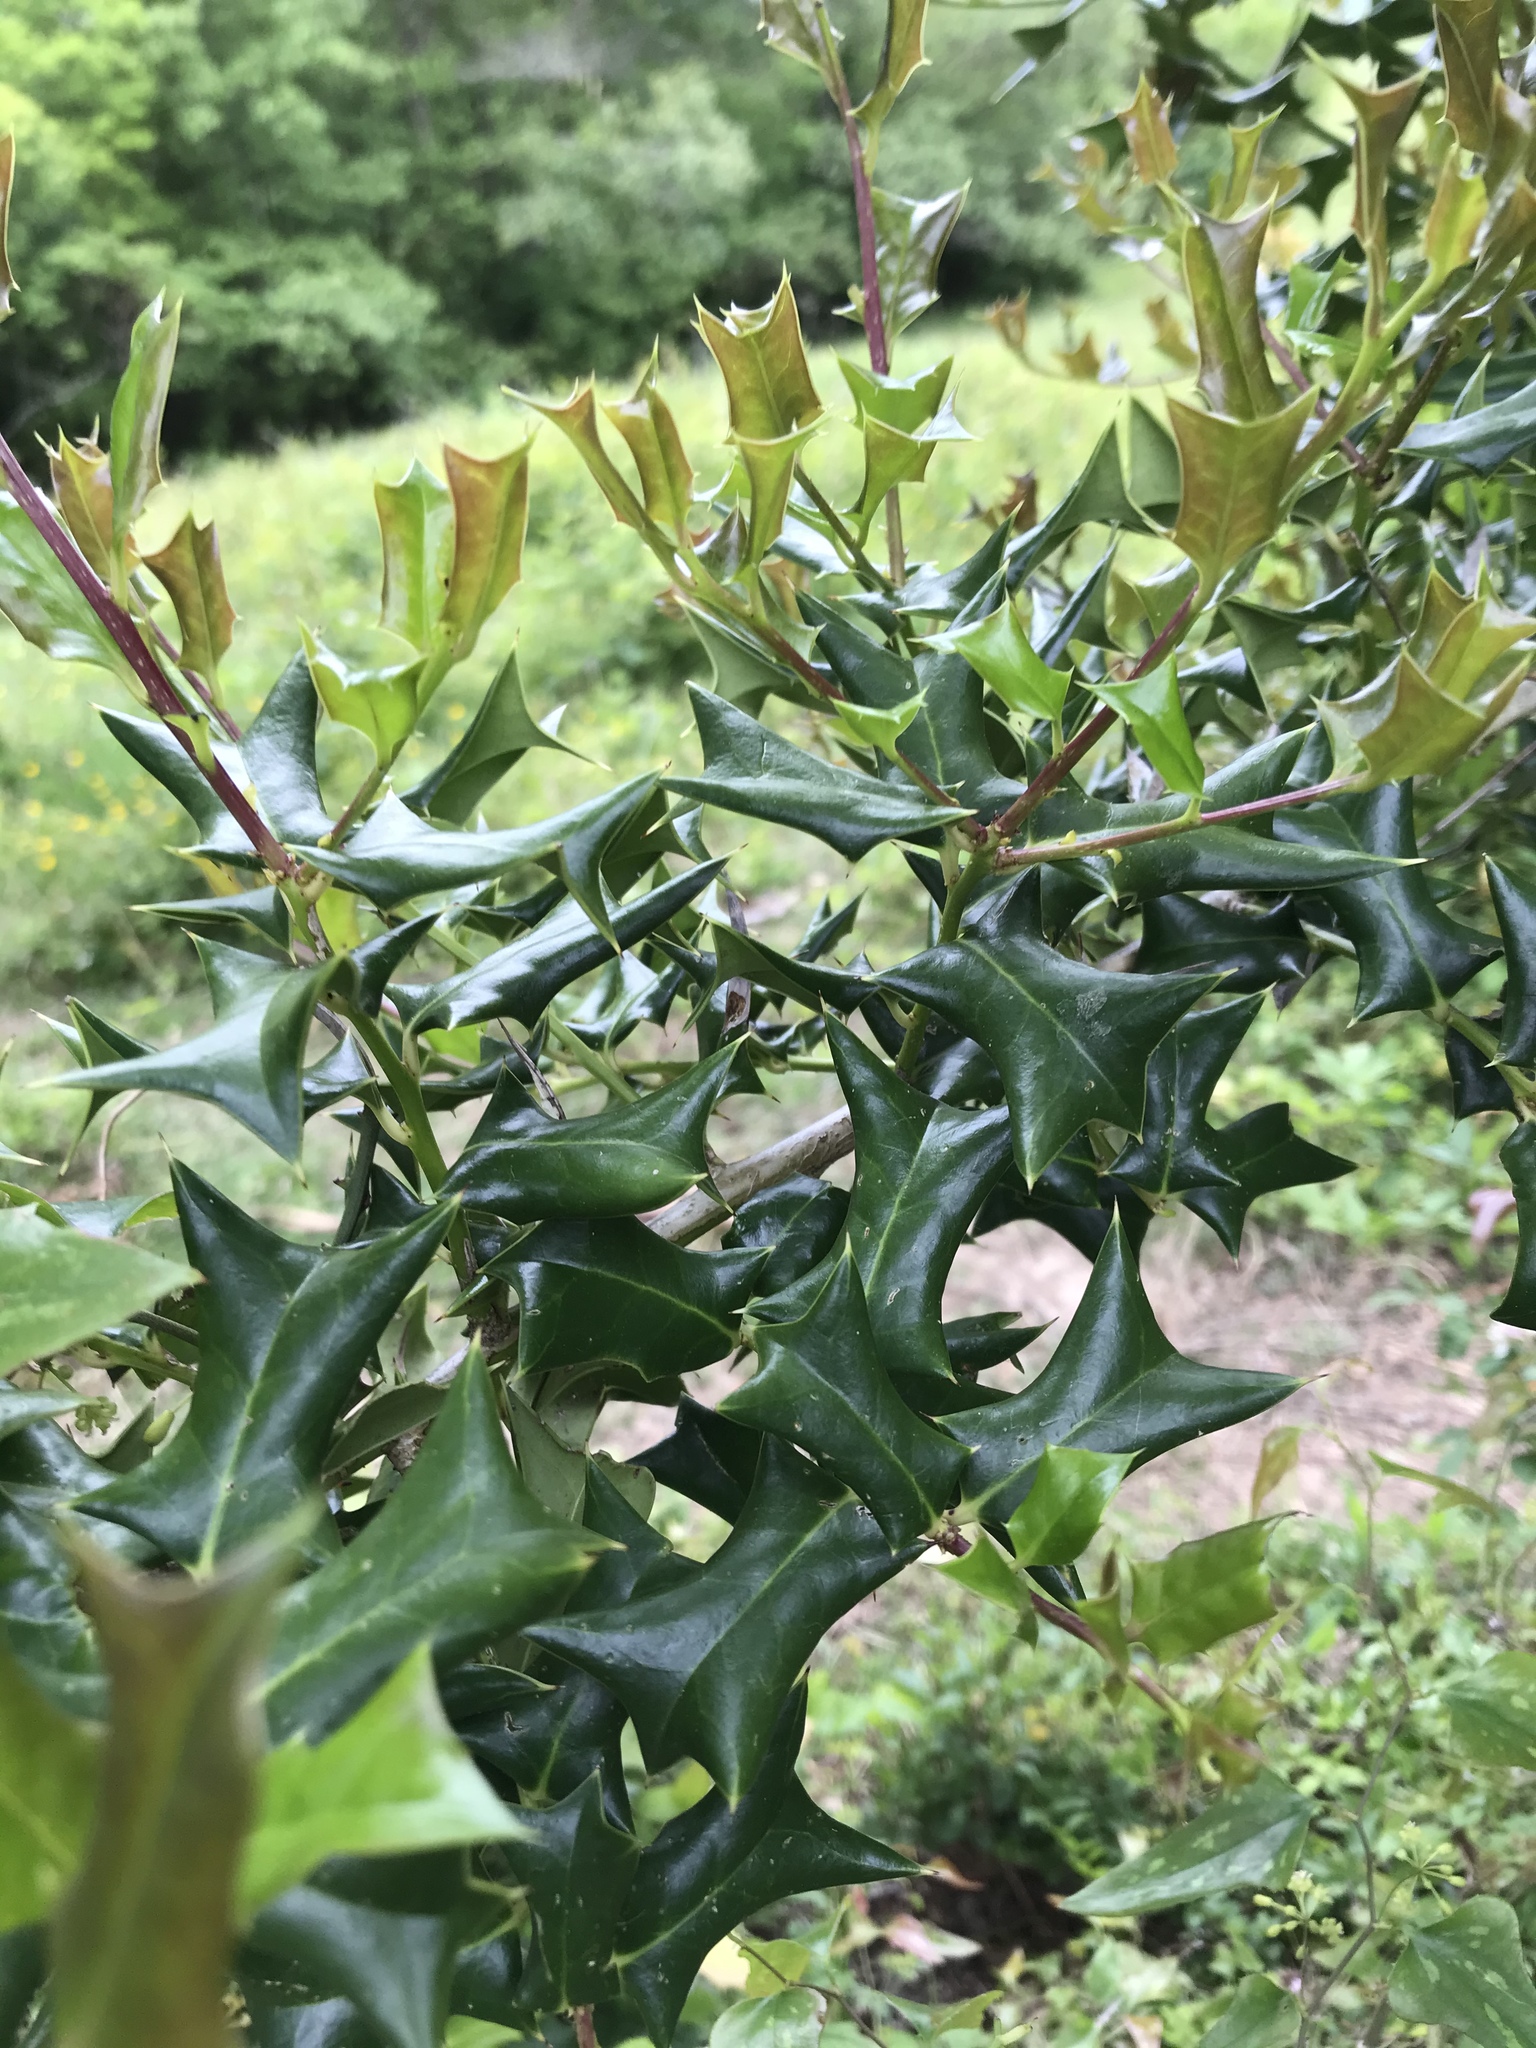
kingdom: Plantae
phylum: Tracheophyta
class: Magnoliopsida
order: Aquifoliales
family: Aquifoliaceae
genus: Ilex
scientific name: Ilex cornuta
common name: Chinese holly
